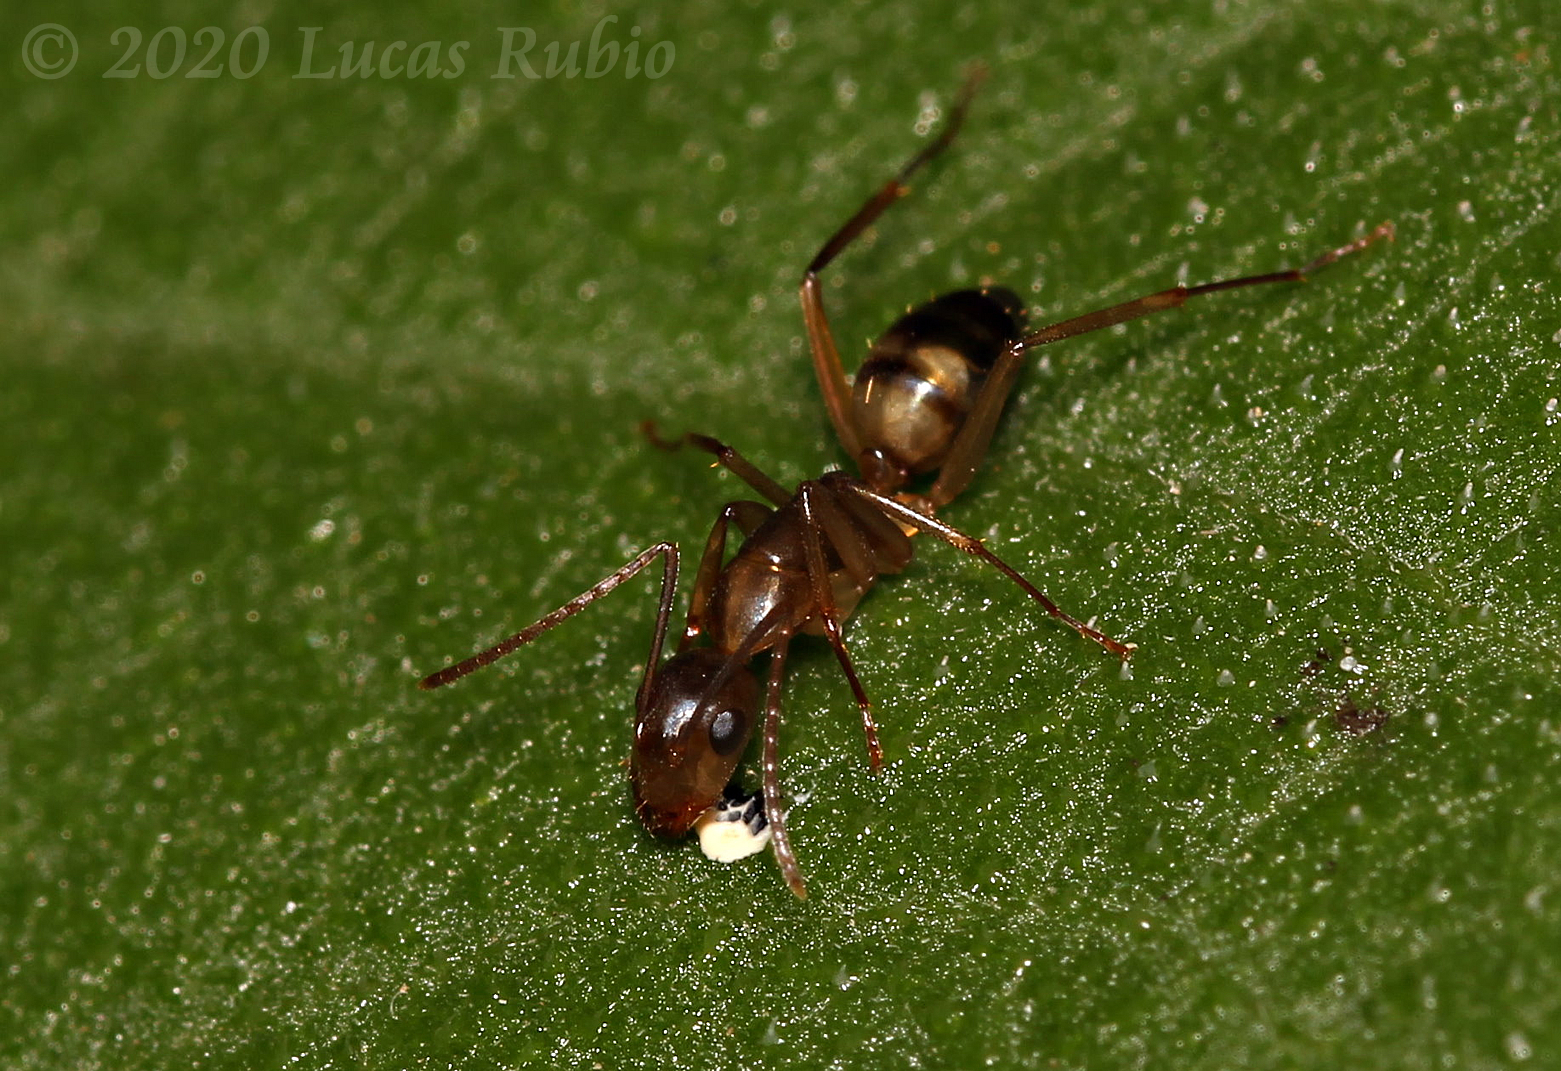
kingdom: Animalia
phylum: Arthropoda
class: Insecta
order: Hymenoptera
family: Formicidae
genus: Camponotus
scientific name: Camponotus substitutus
